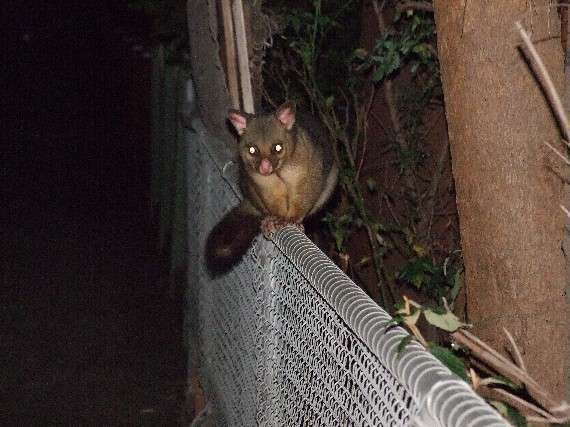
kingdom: Animalia
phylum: Chordata
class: Mammalia
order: Diprotodontia
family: Phalangeridae
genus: Trichosurus
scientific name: Trichosurus vulpecula
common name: Common brushtail
